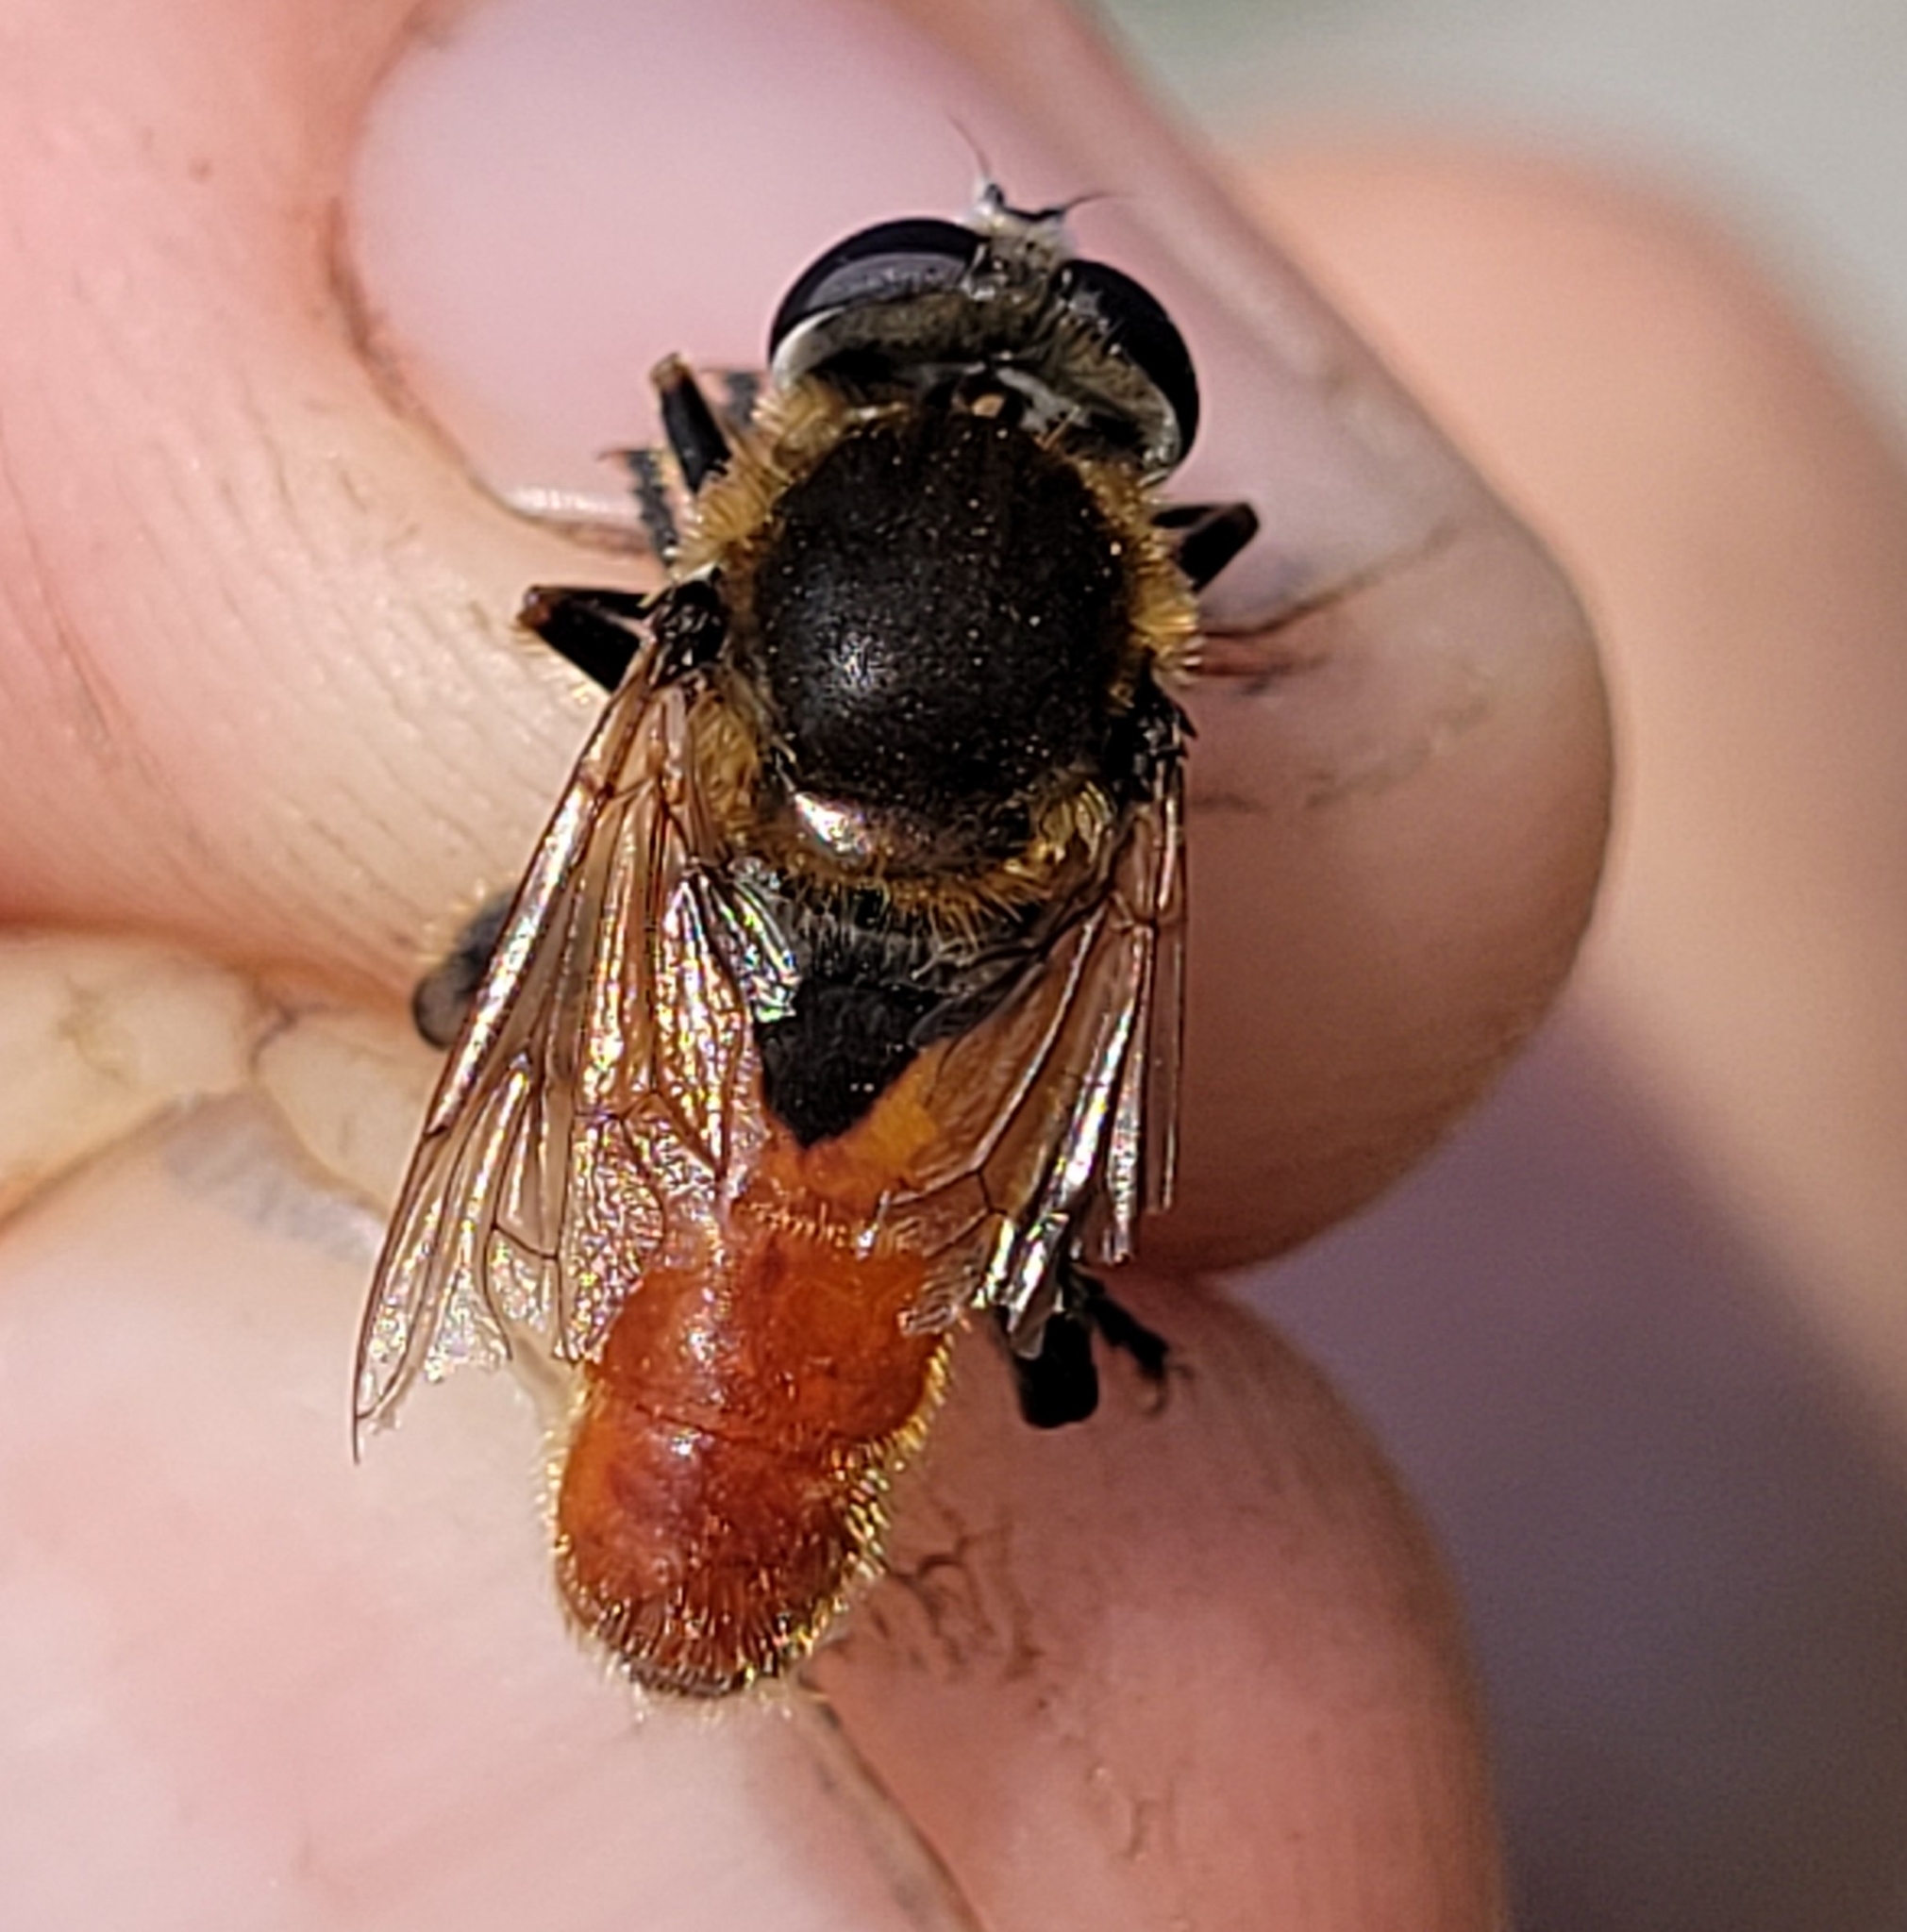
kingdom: Animalia
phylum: Arthropoda
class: Insecta
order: Diptera
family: Syrphidae
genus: Polydontomyia
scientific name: Polydontomyia curvipes
